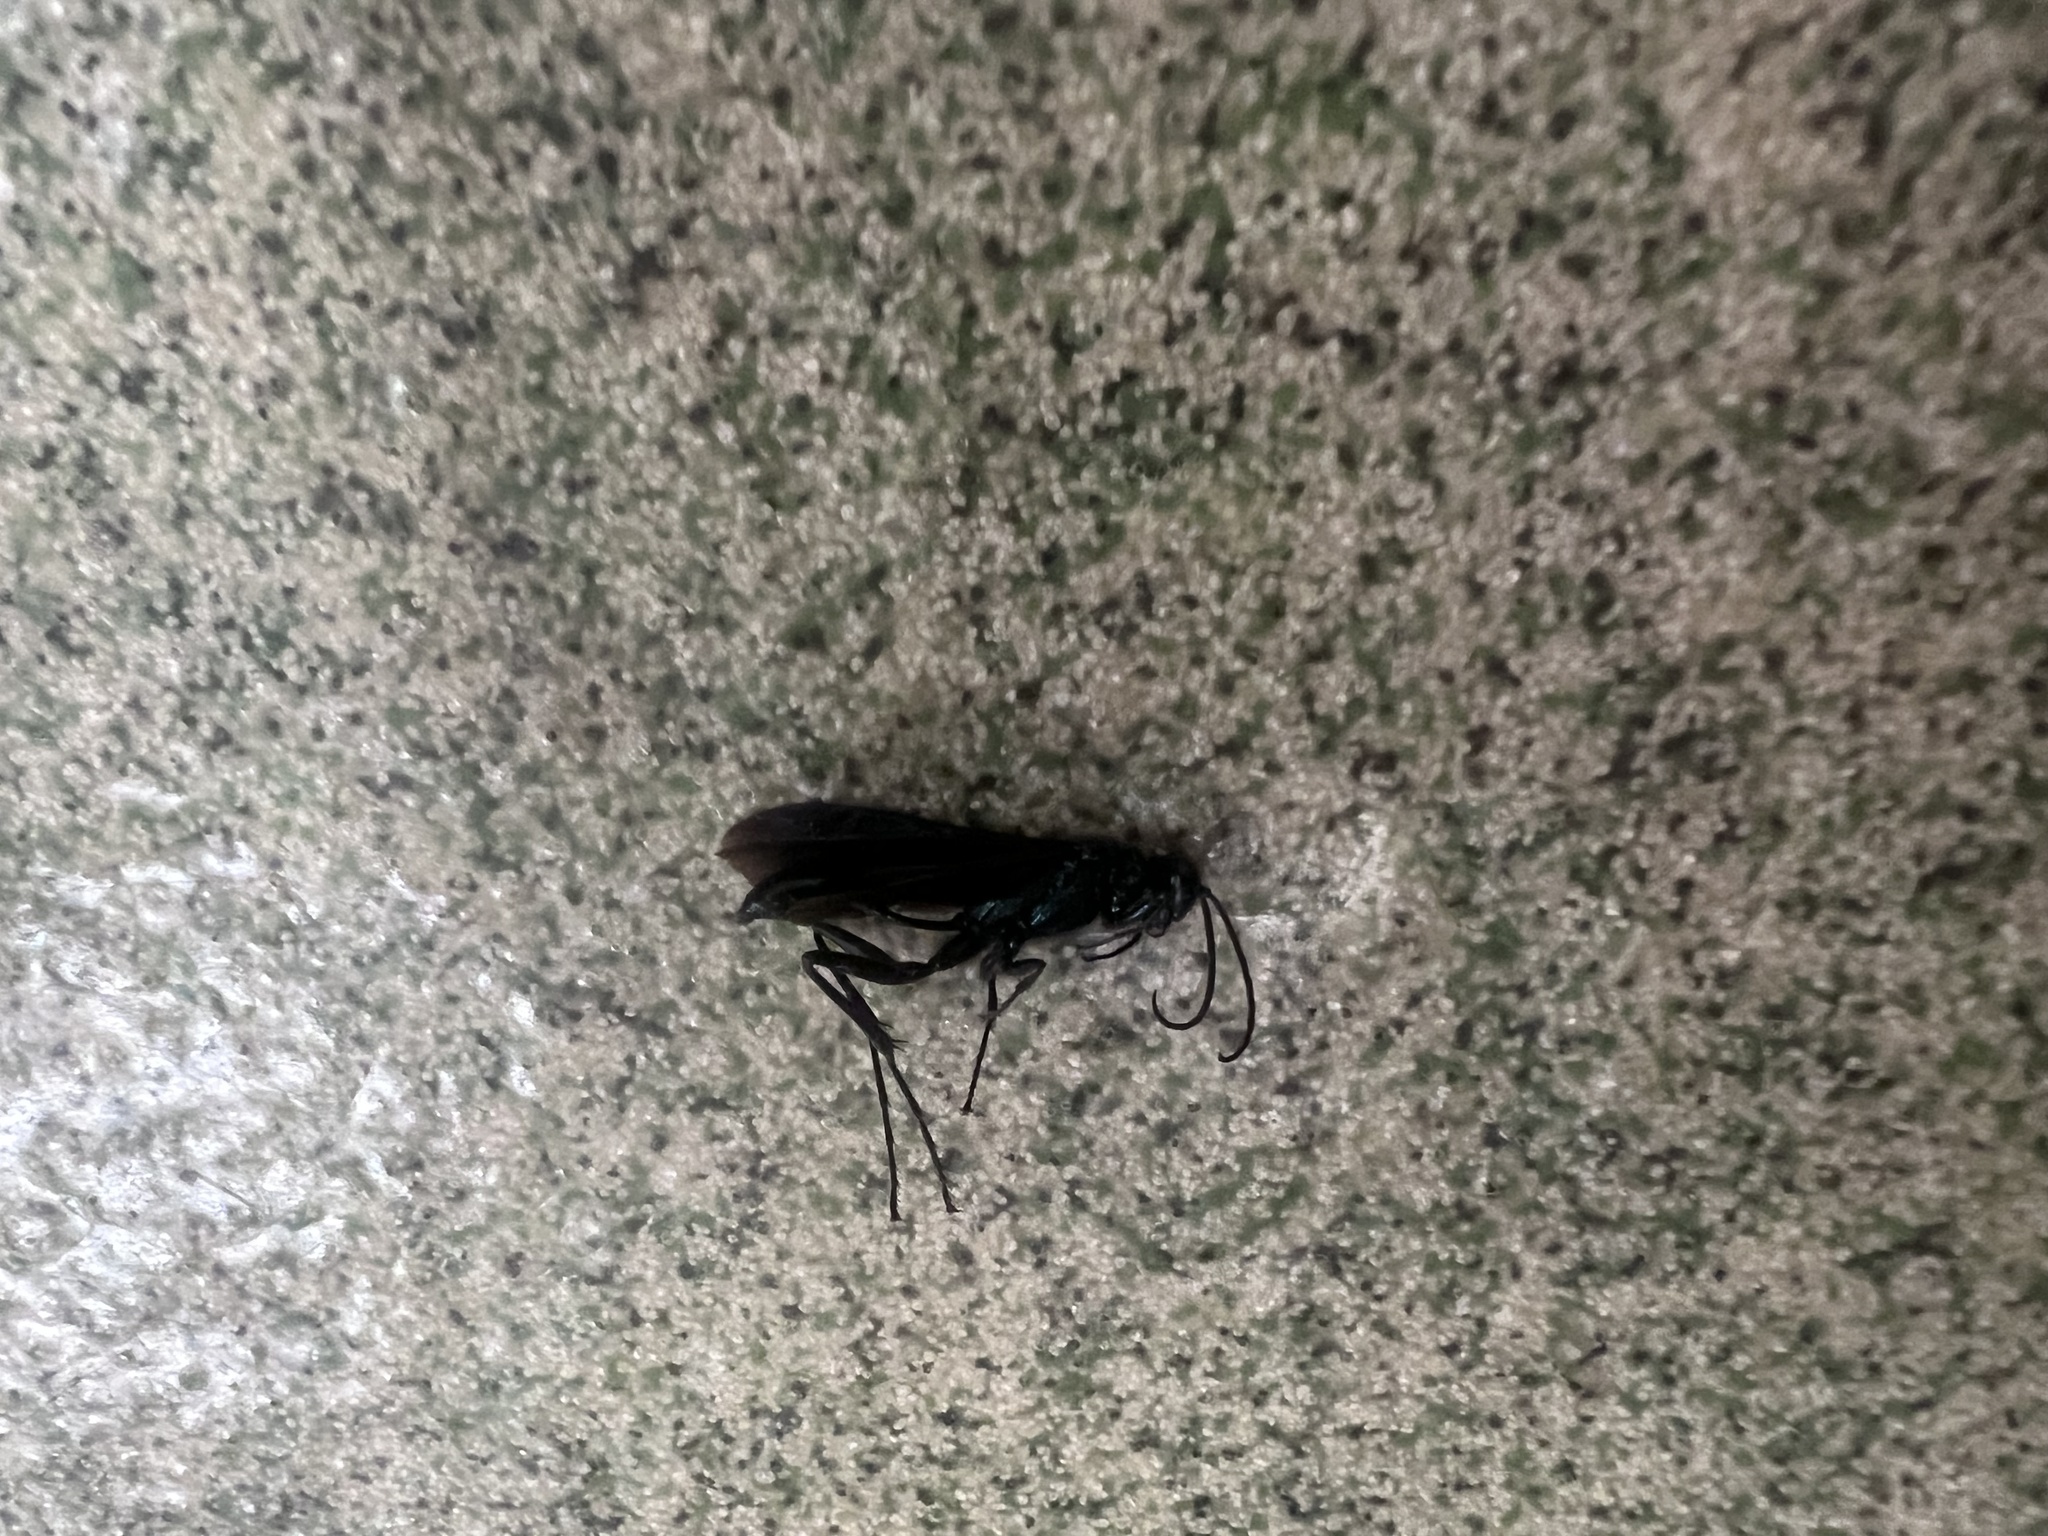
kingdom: Animalia
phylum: Arthropoda
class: Insecta
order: Hymenoptera
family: Sphecidae
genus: Chalybion
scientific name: Chalybion californicum
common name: Mud dauber
